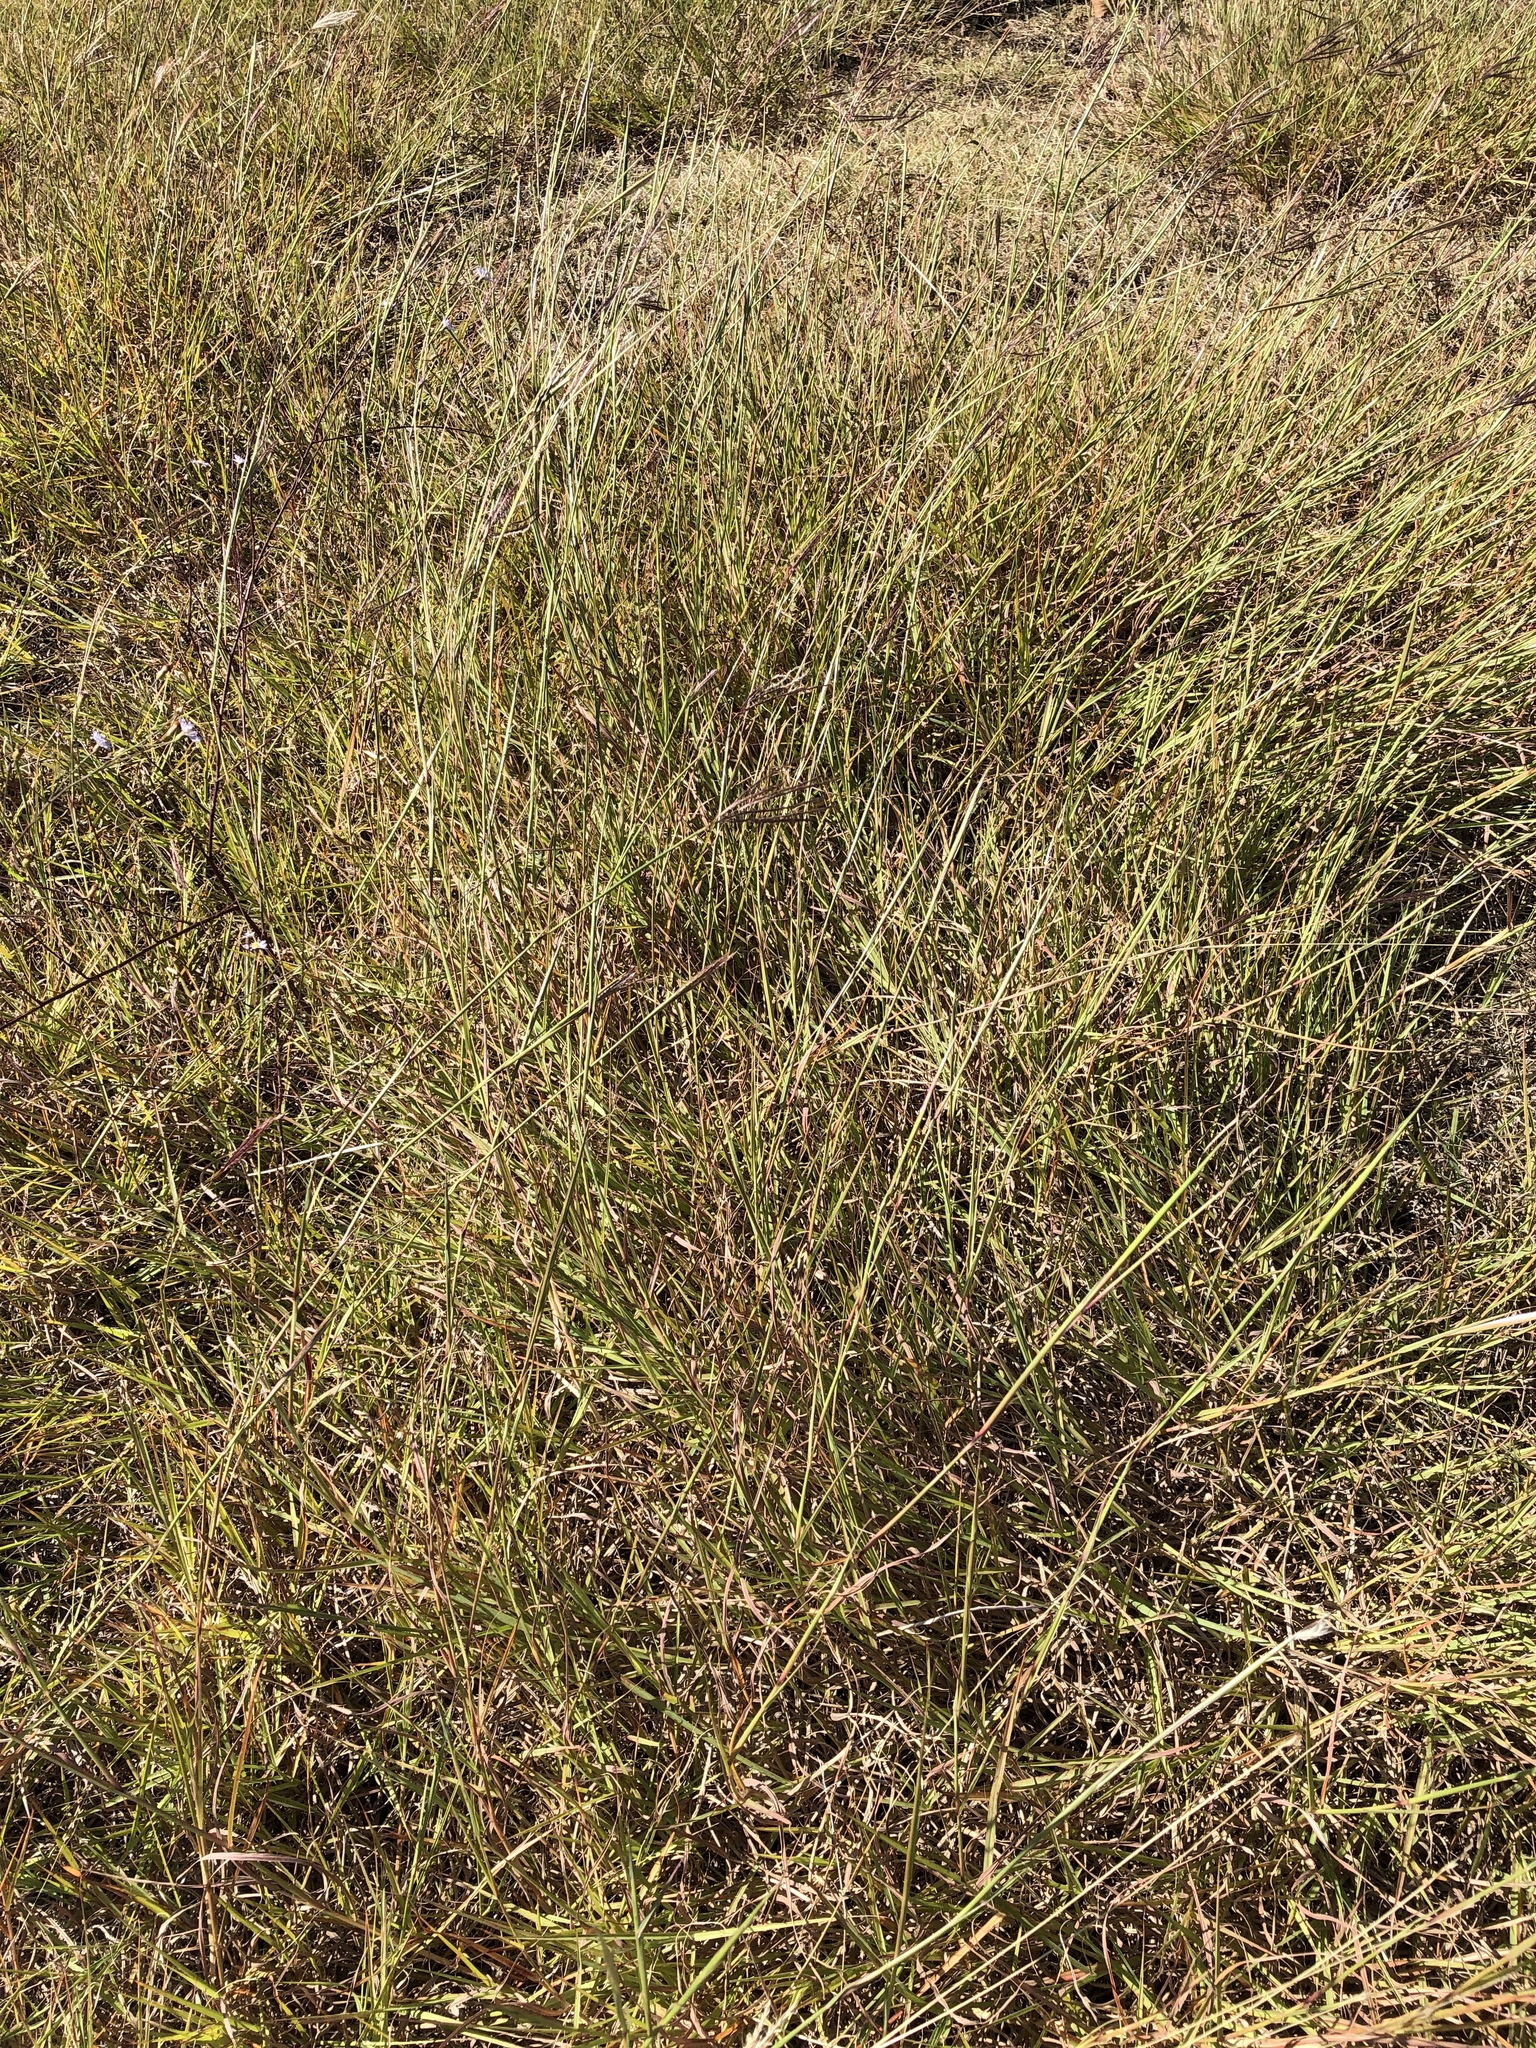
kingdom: Plantae
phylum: Tracheophyta
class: Liliopsida
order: Poales
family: Poaceae
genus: Bothriochloa
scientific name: Bothriochloa ischaemum
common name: Yellow bluestem
